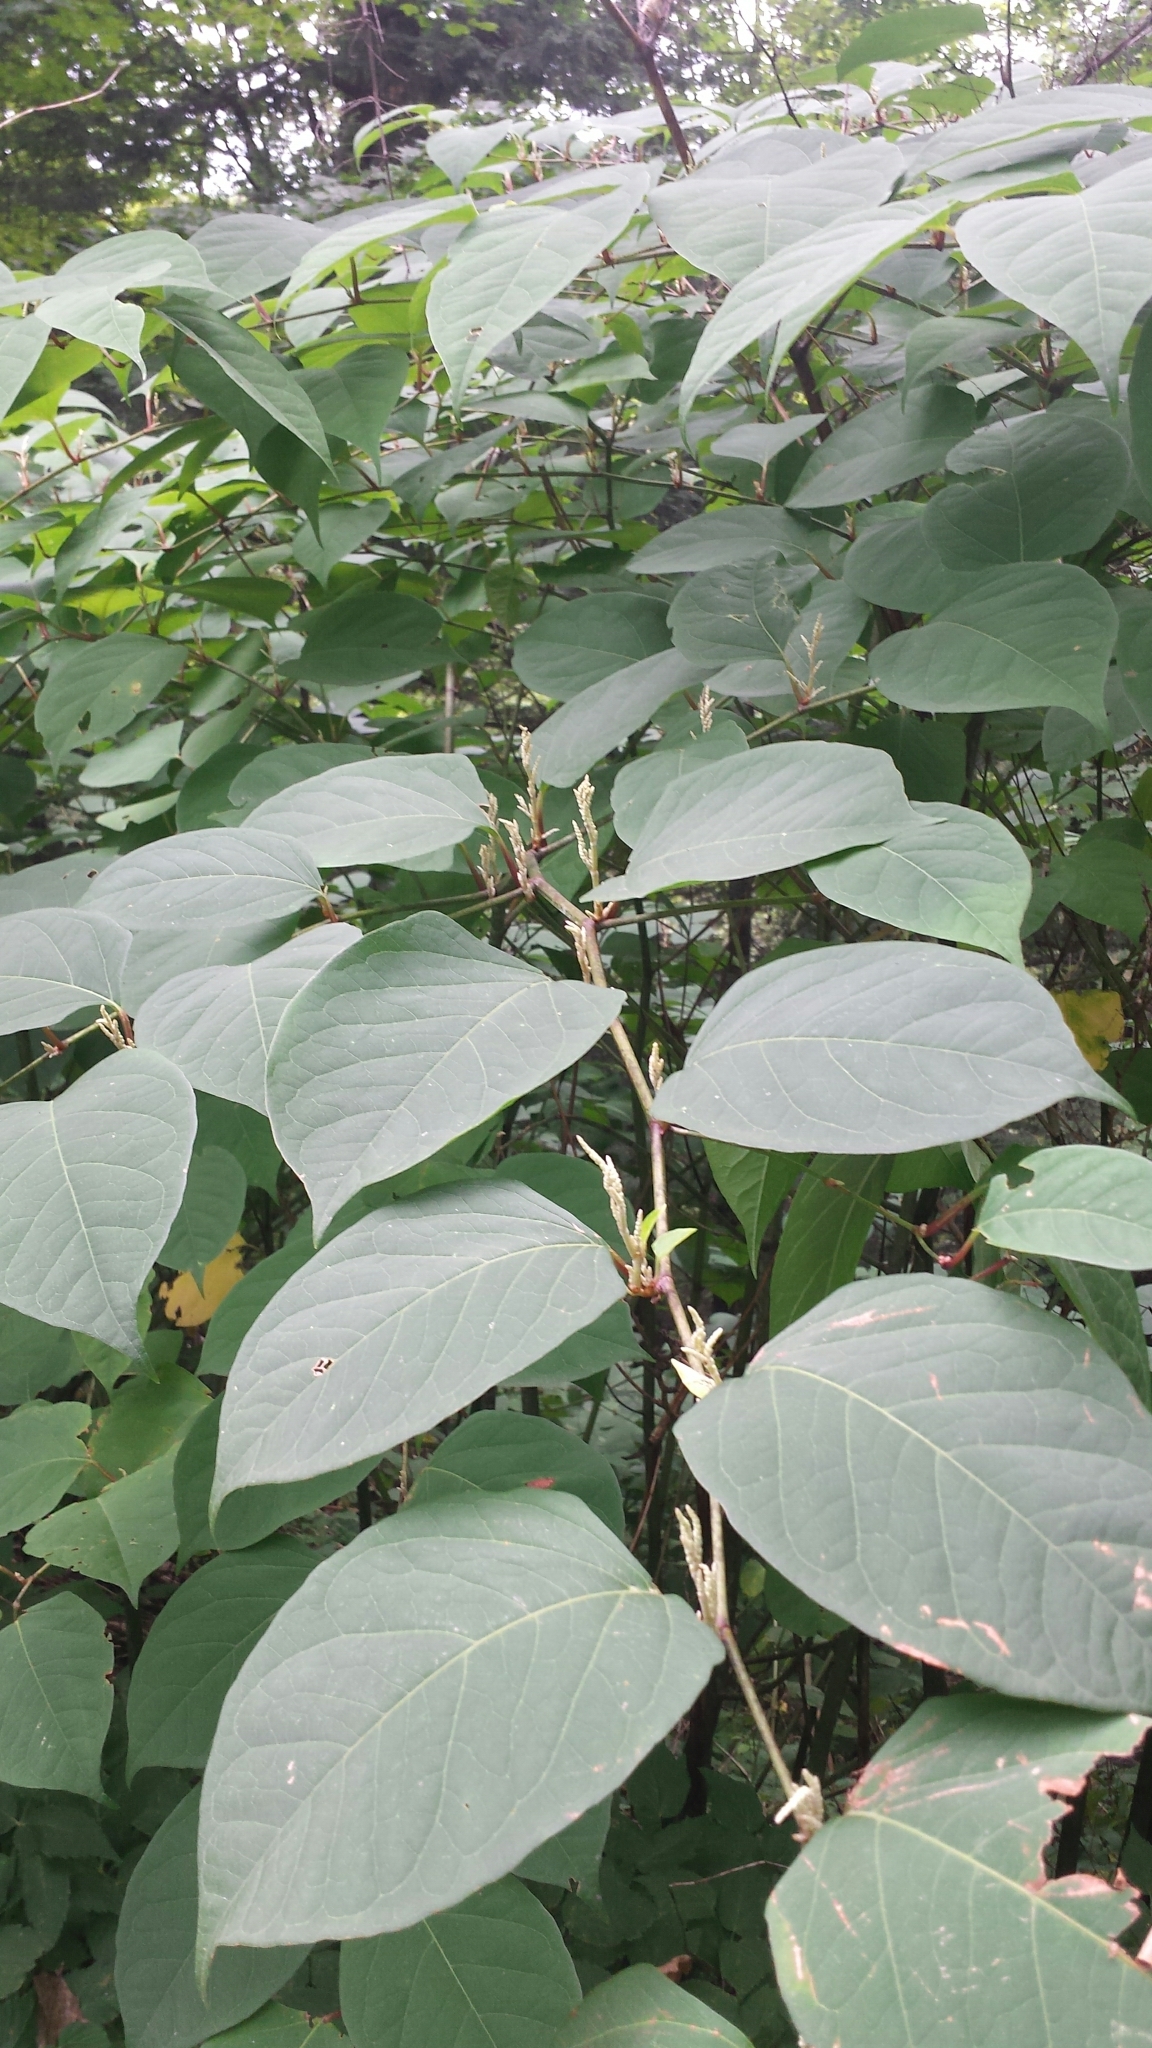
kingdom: Plantae
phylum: Tracheophyta
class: Magnoliopsida
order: Caryophyllales
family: Polygonaceae
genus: Reynoutria
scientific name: Reynoutria japonica
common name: Japanese knotweed
